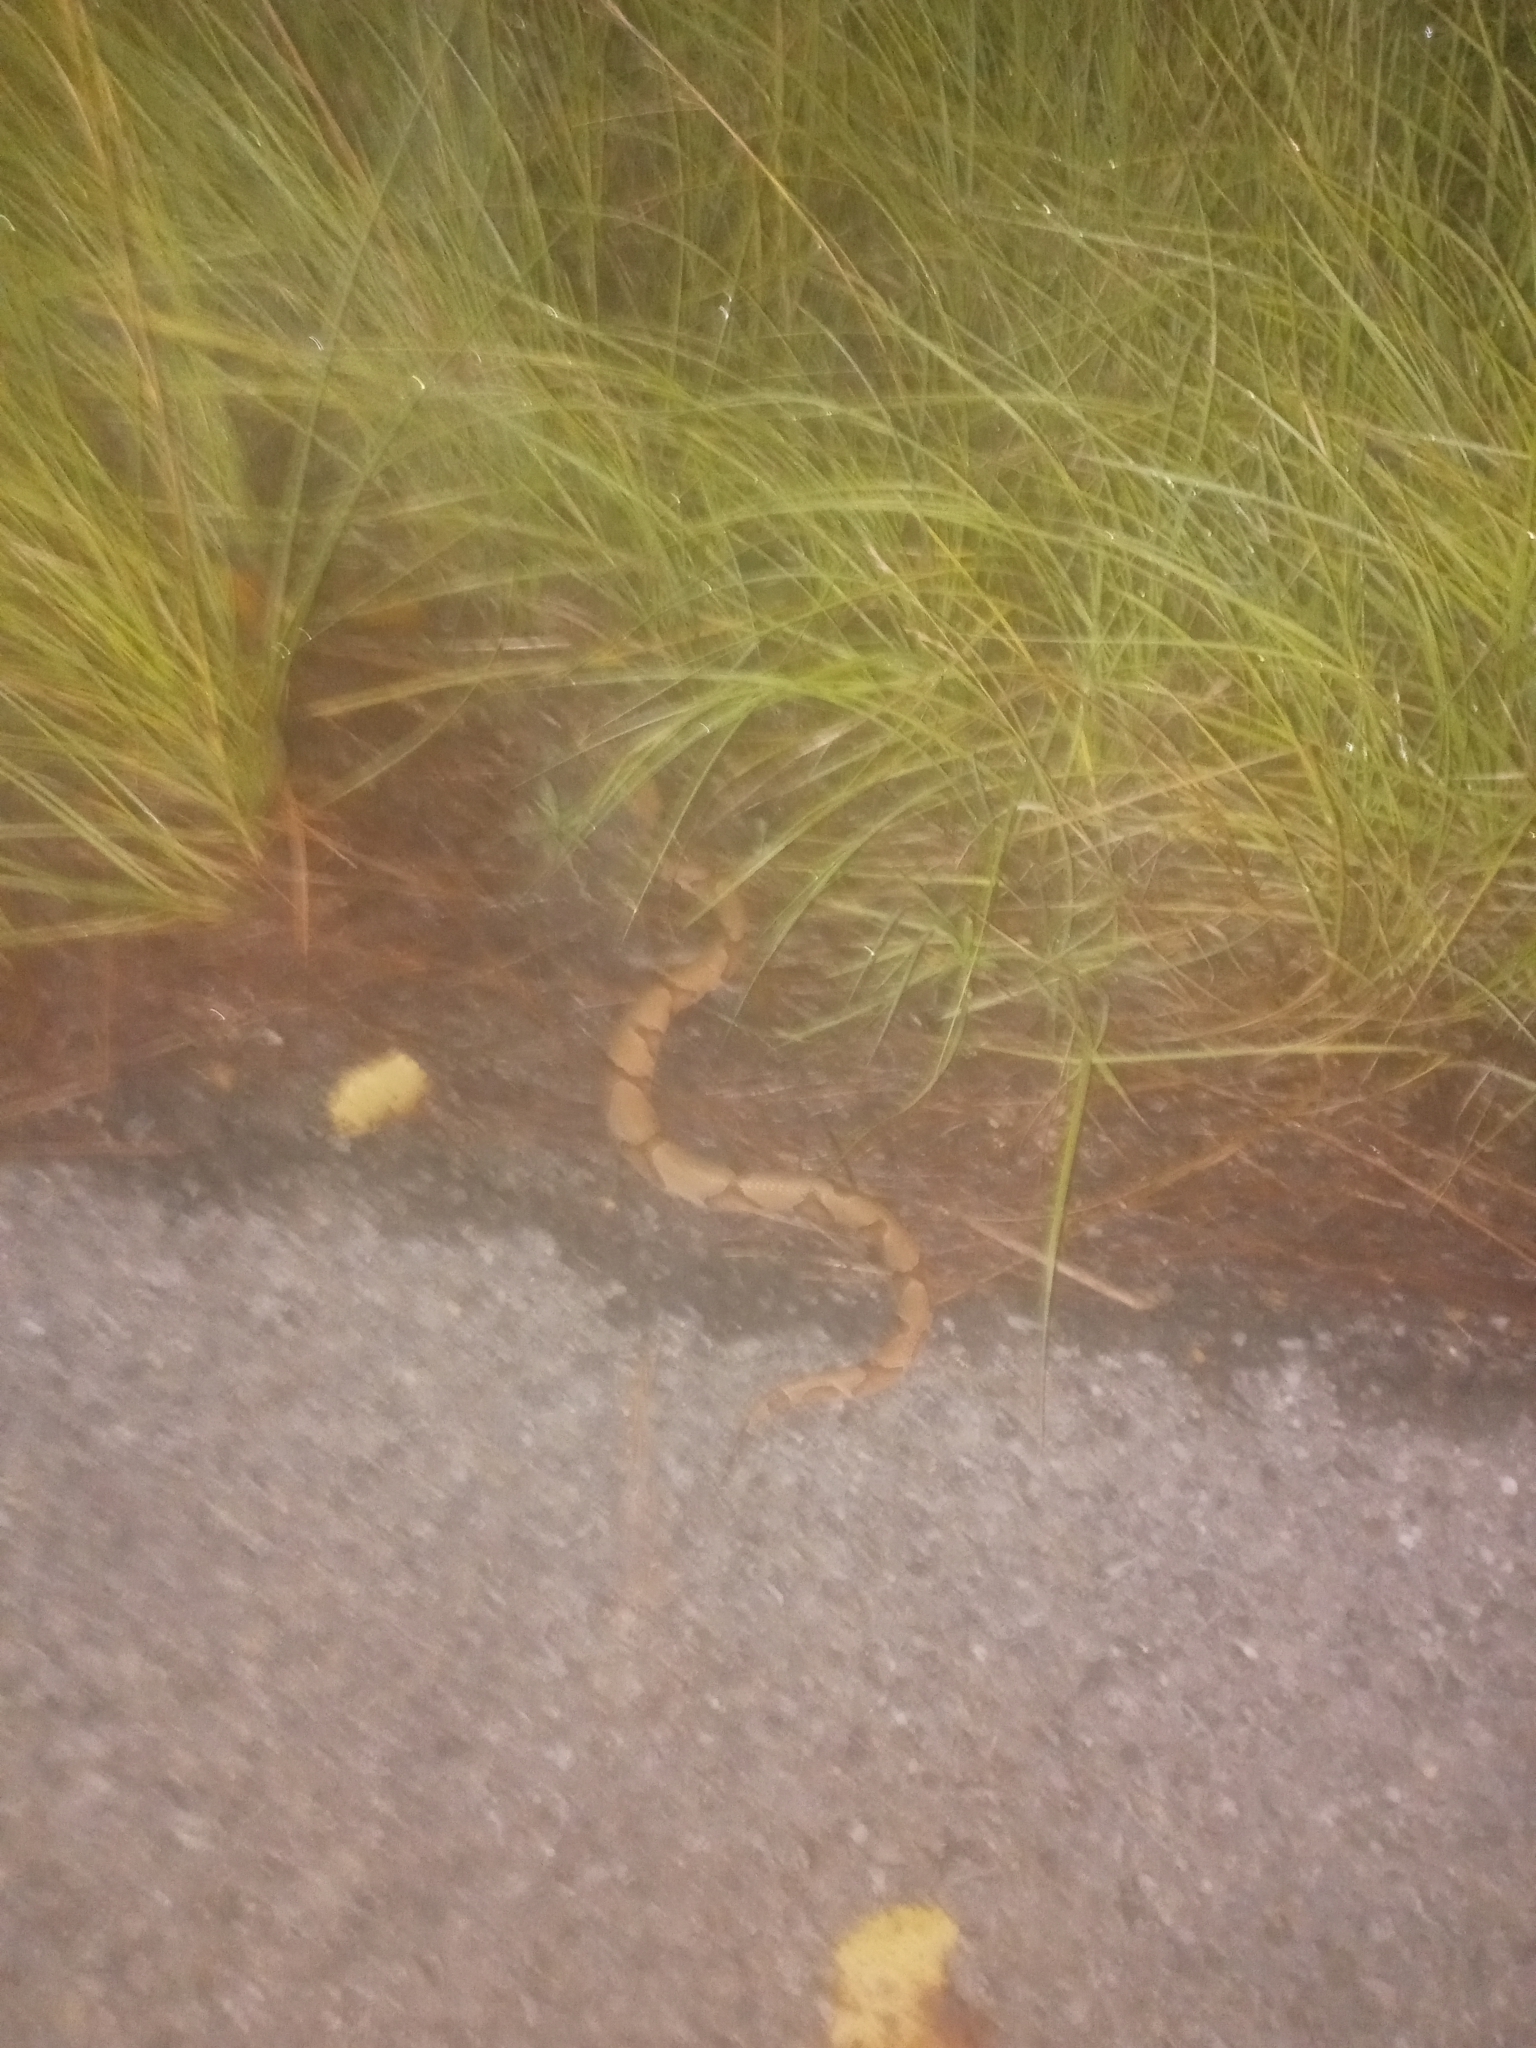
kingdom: Animalia
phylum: Chordata
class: Squamata
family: Viperidae
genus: Agkistrodon
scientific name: Agkistrodon contortrix
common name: Northern copperhead
